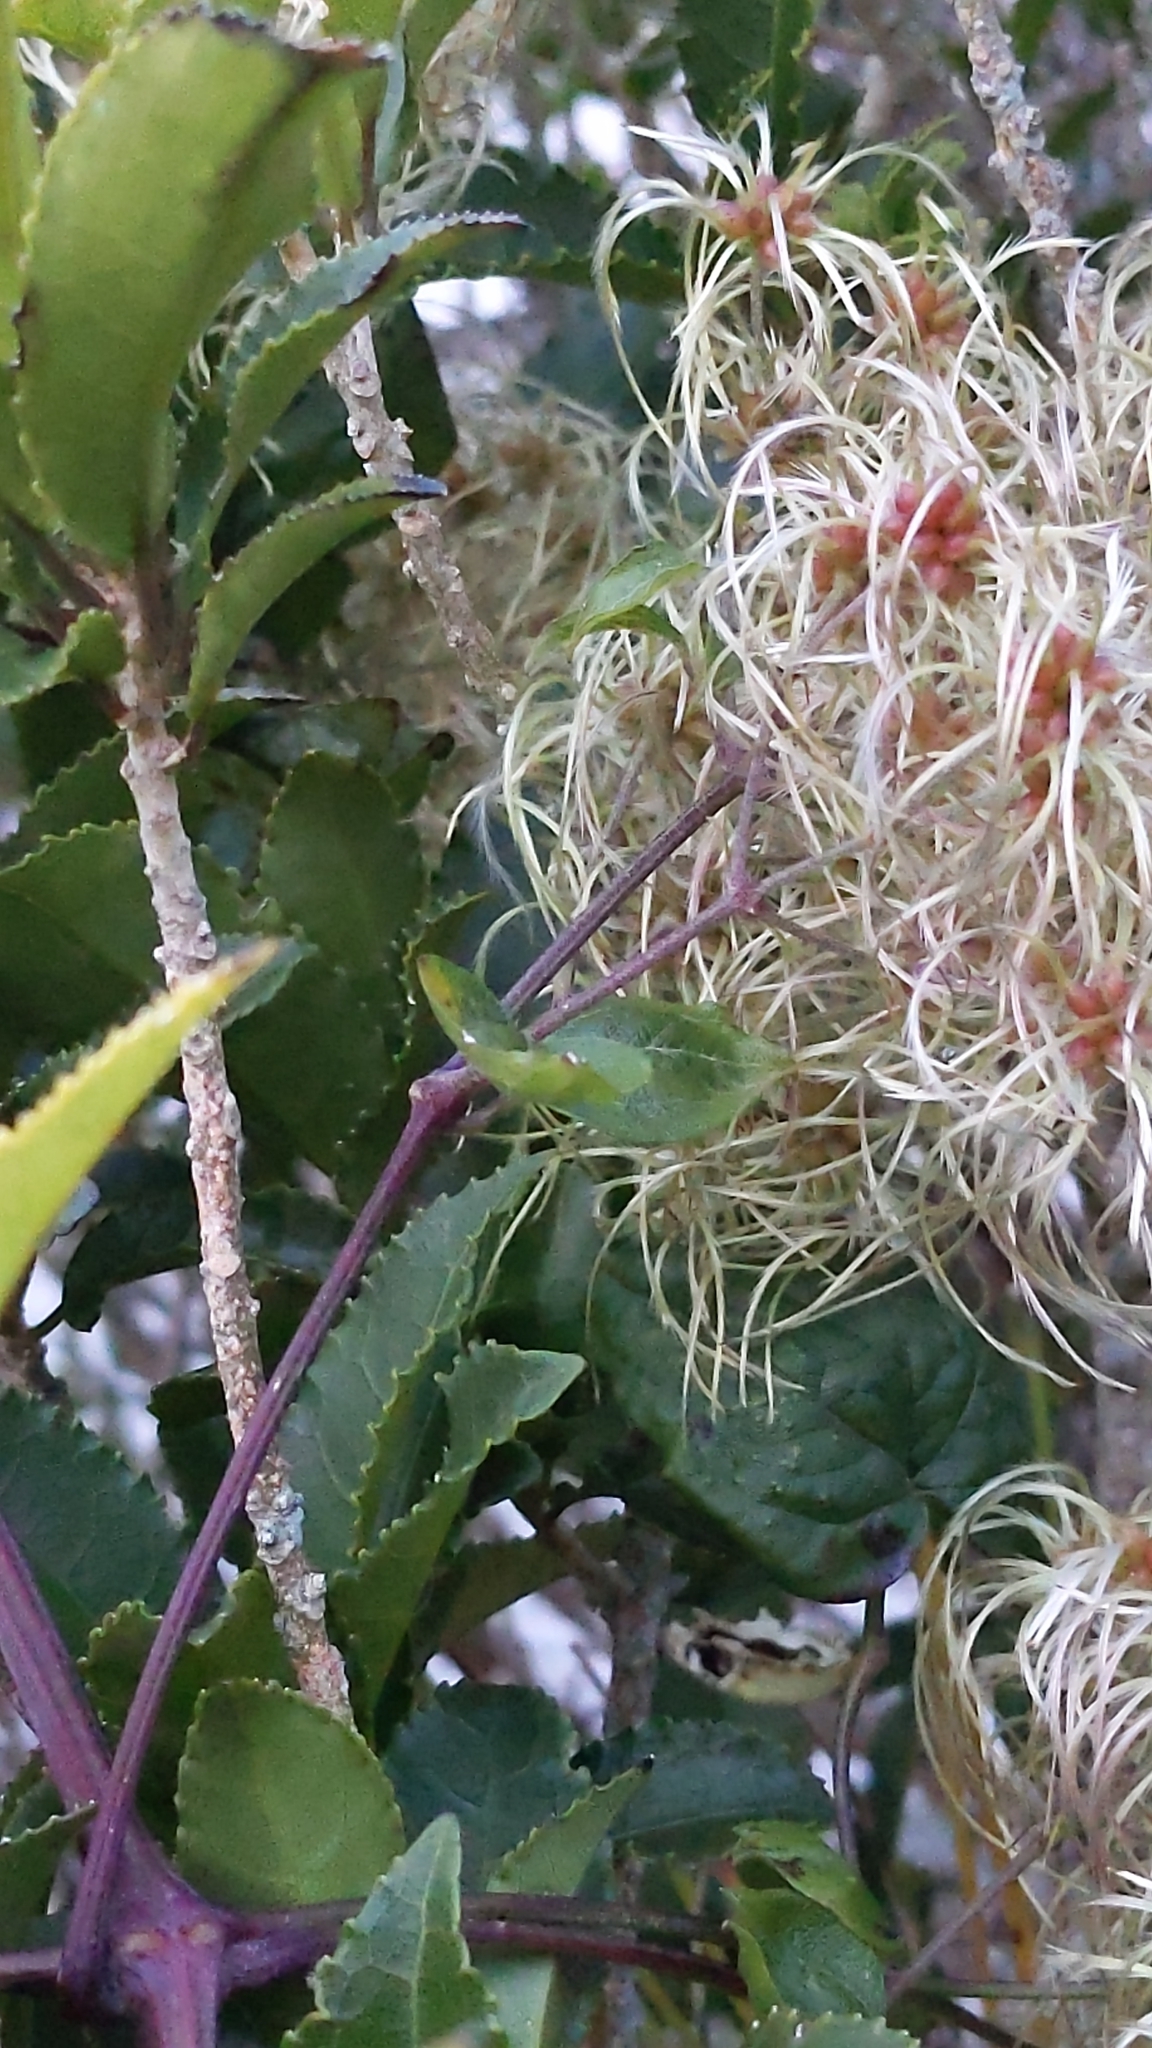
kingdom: Plantae
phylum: Tracheophyta
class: Magnoliopsida
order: Ranunculales
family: Ranunculaceae
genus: Clematis
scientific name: Clematis vitalba
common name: Evergreen clematis
